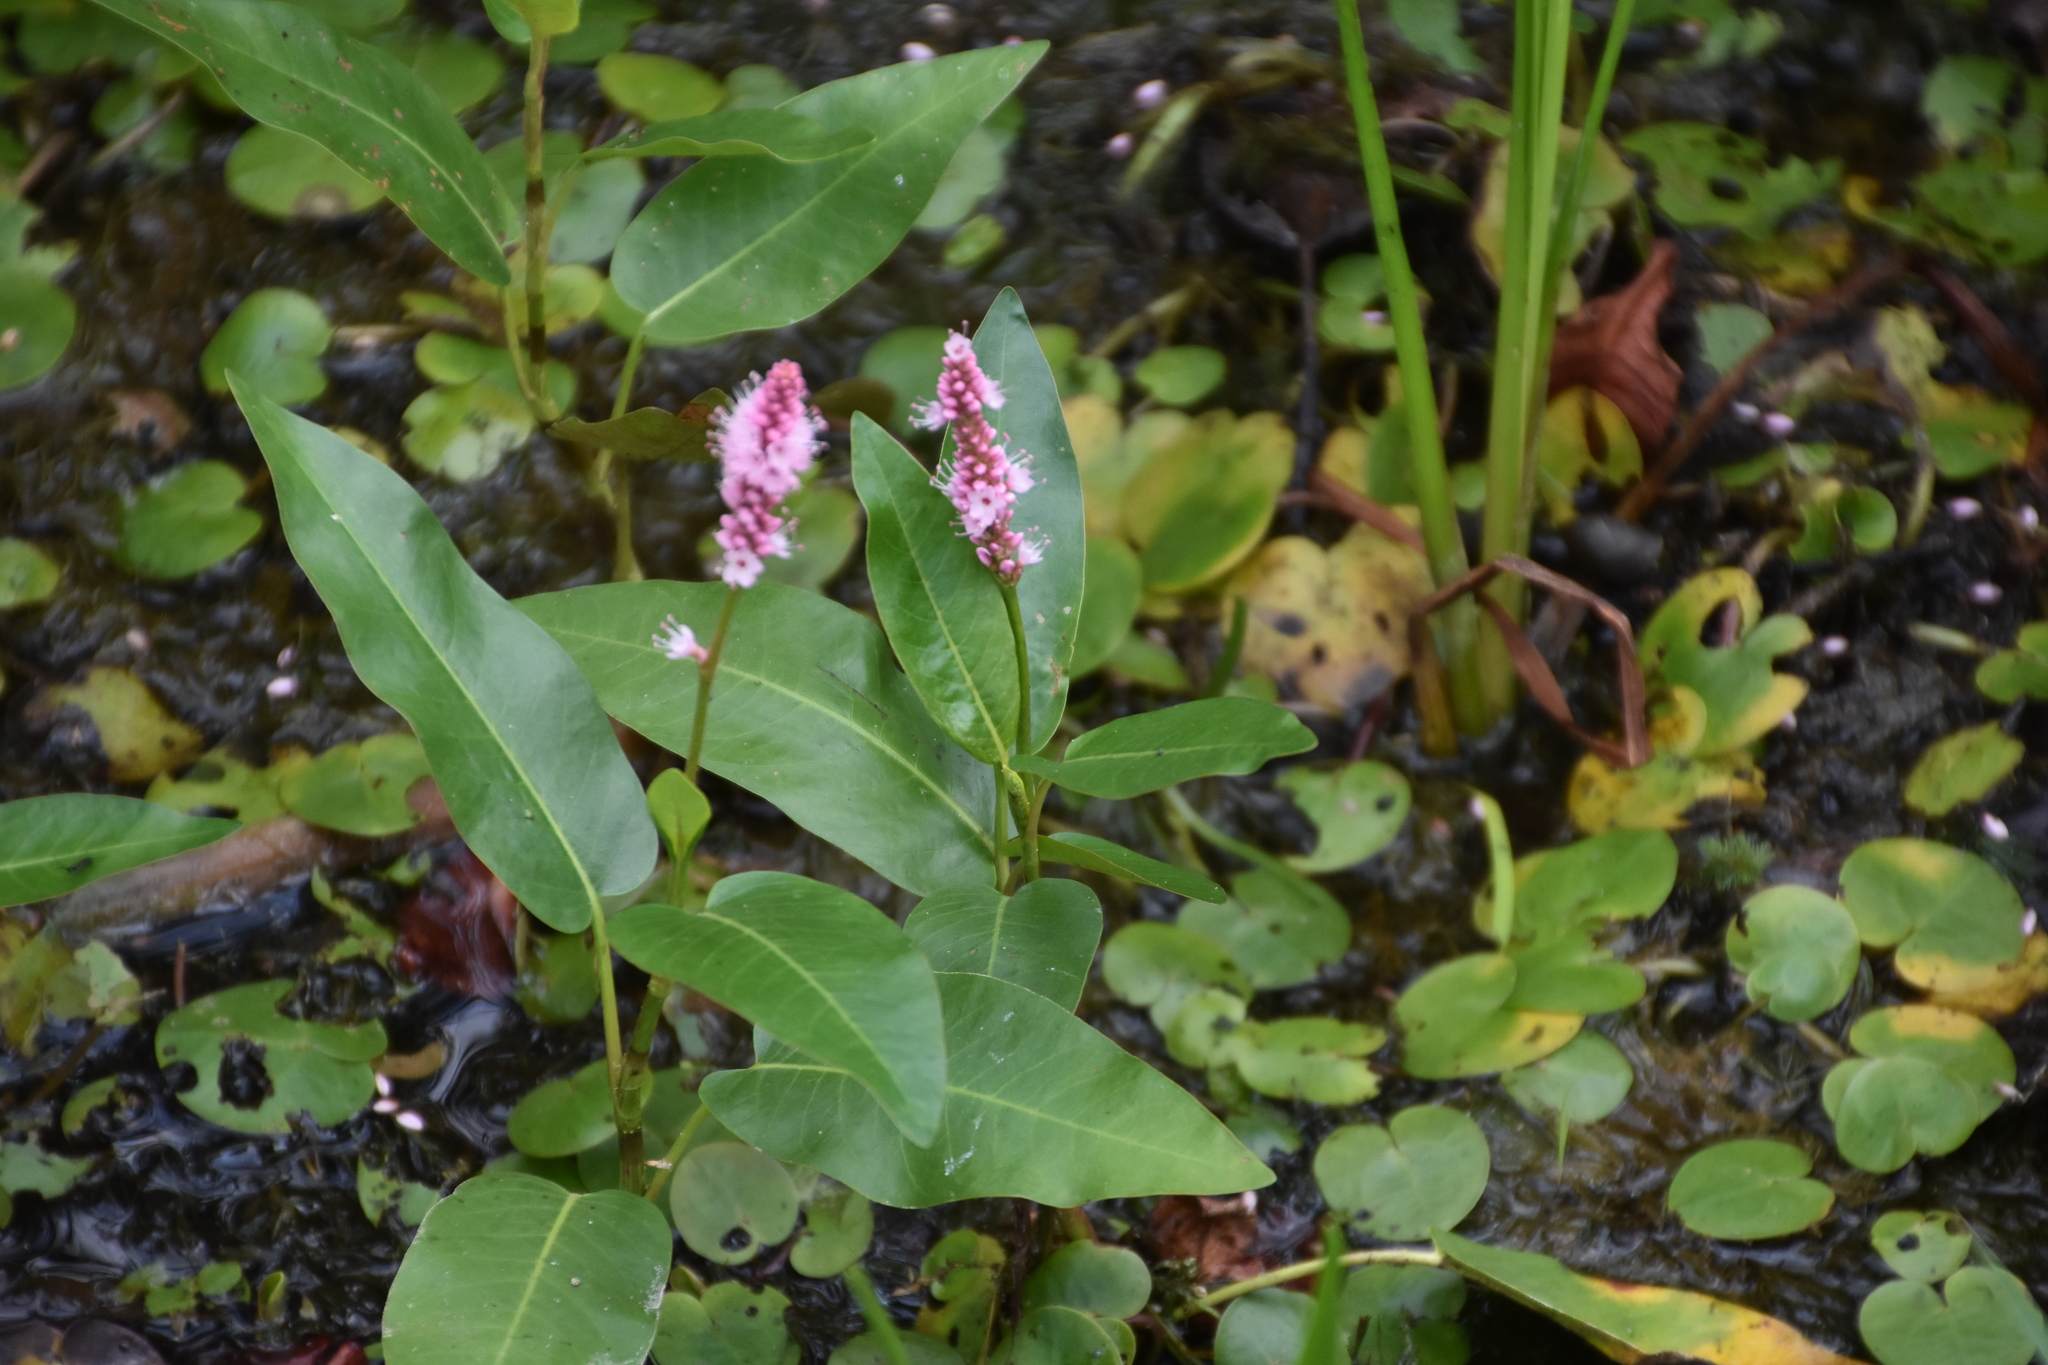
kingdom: Plantae
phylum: Tracheophyta
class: Magnoliopsida
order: Caryophyllales
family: Polygonaceae
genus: Persicaria
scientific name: Persicaria amphibia
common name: Amphibious bistort
